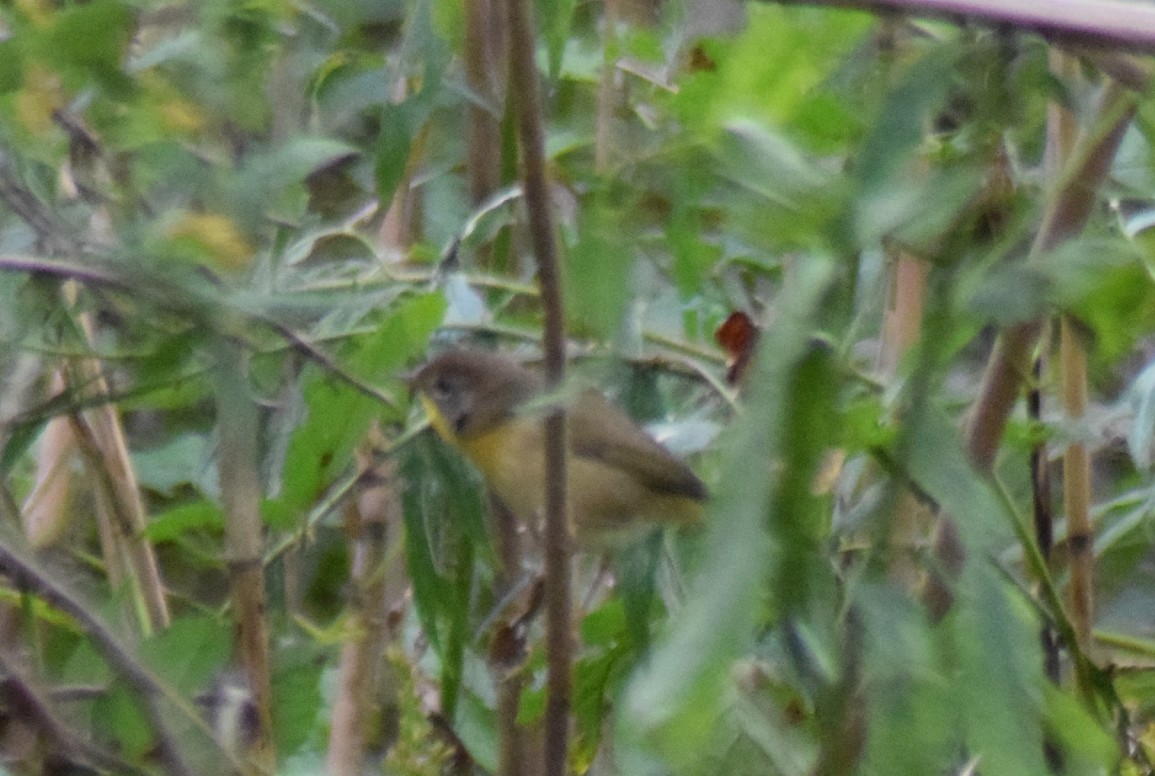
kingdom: Animalia
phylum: Chordata
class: Aves
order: Passeriformes
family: Parulidae
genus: Geothlypis
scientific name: Geothlypis trichas
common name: Common yellowthroat
